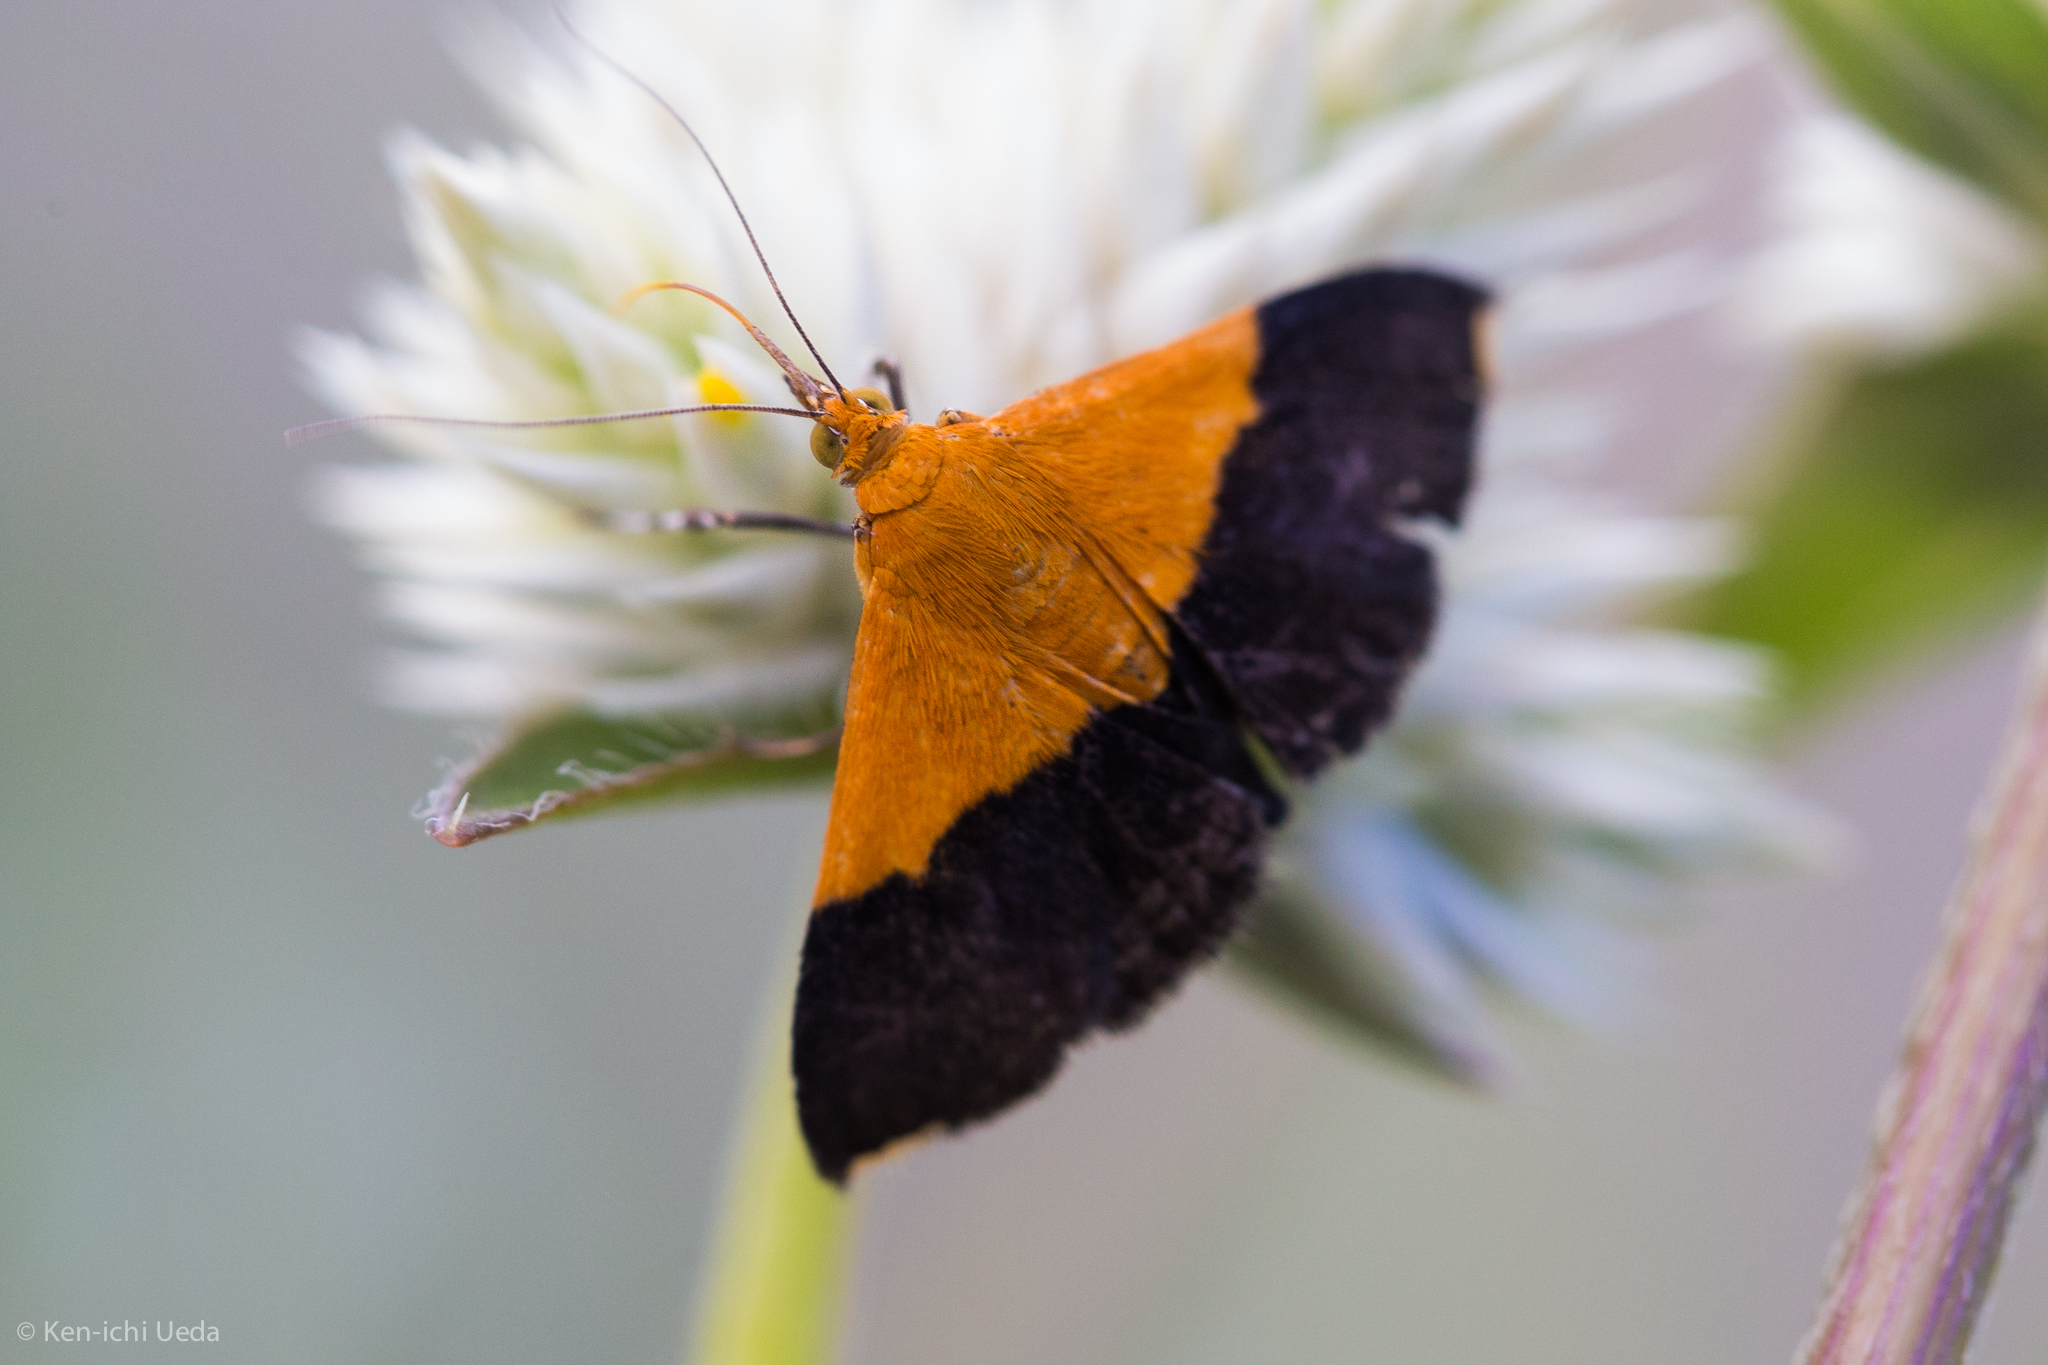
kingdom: Animalia
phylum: Arthropoda
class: Insecta
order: Lepidoptera
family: Crambidae
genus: Pyrausta
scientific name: Pyrausta augustalis
